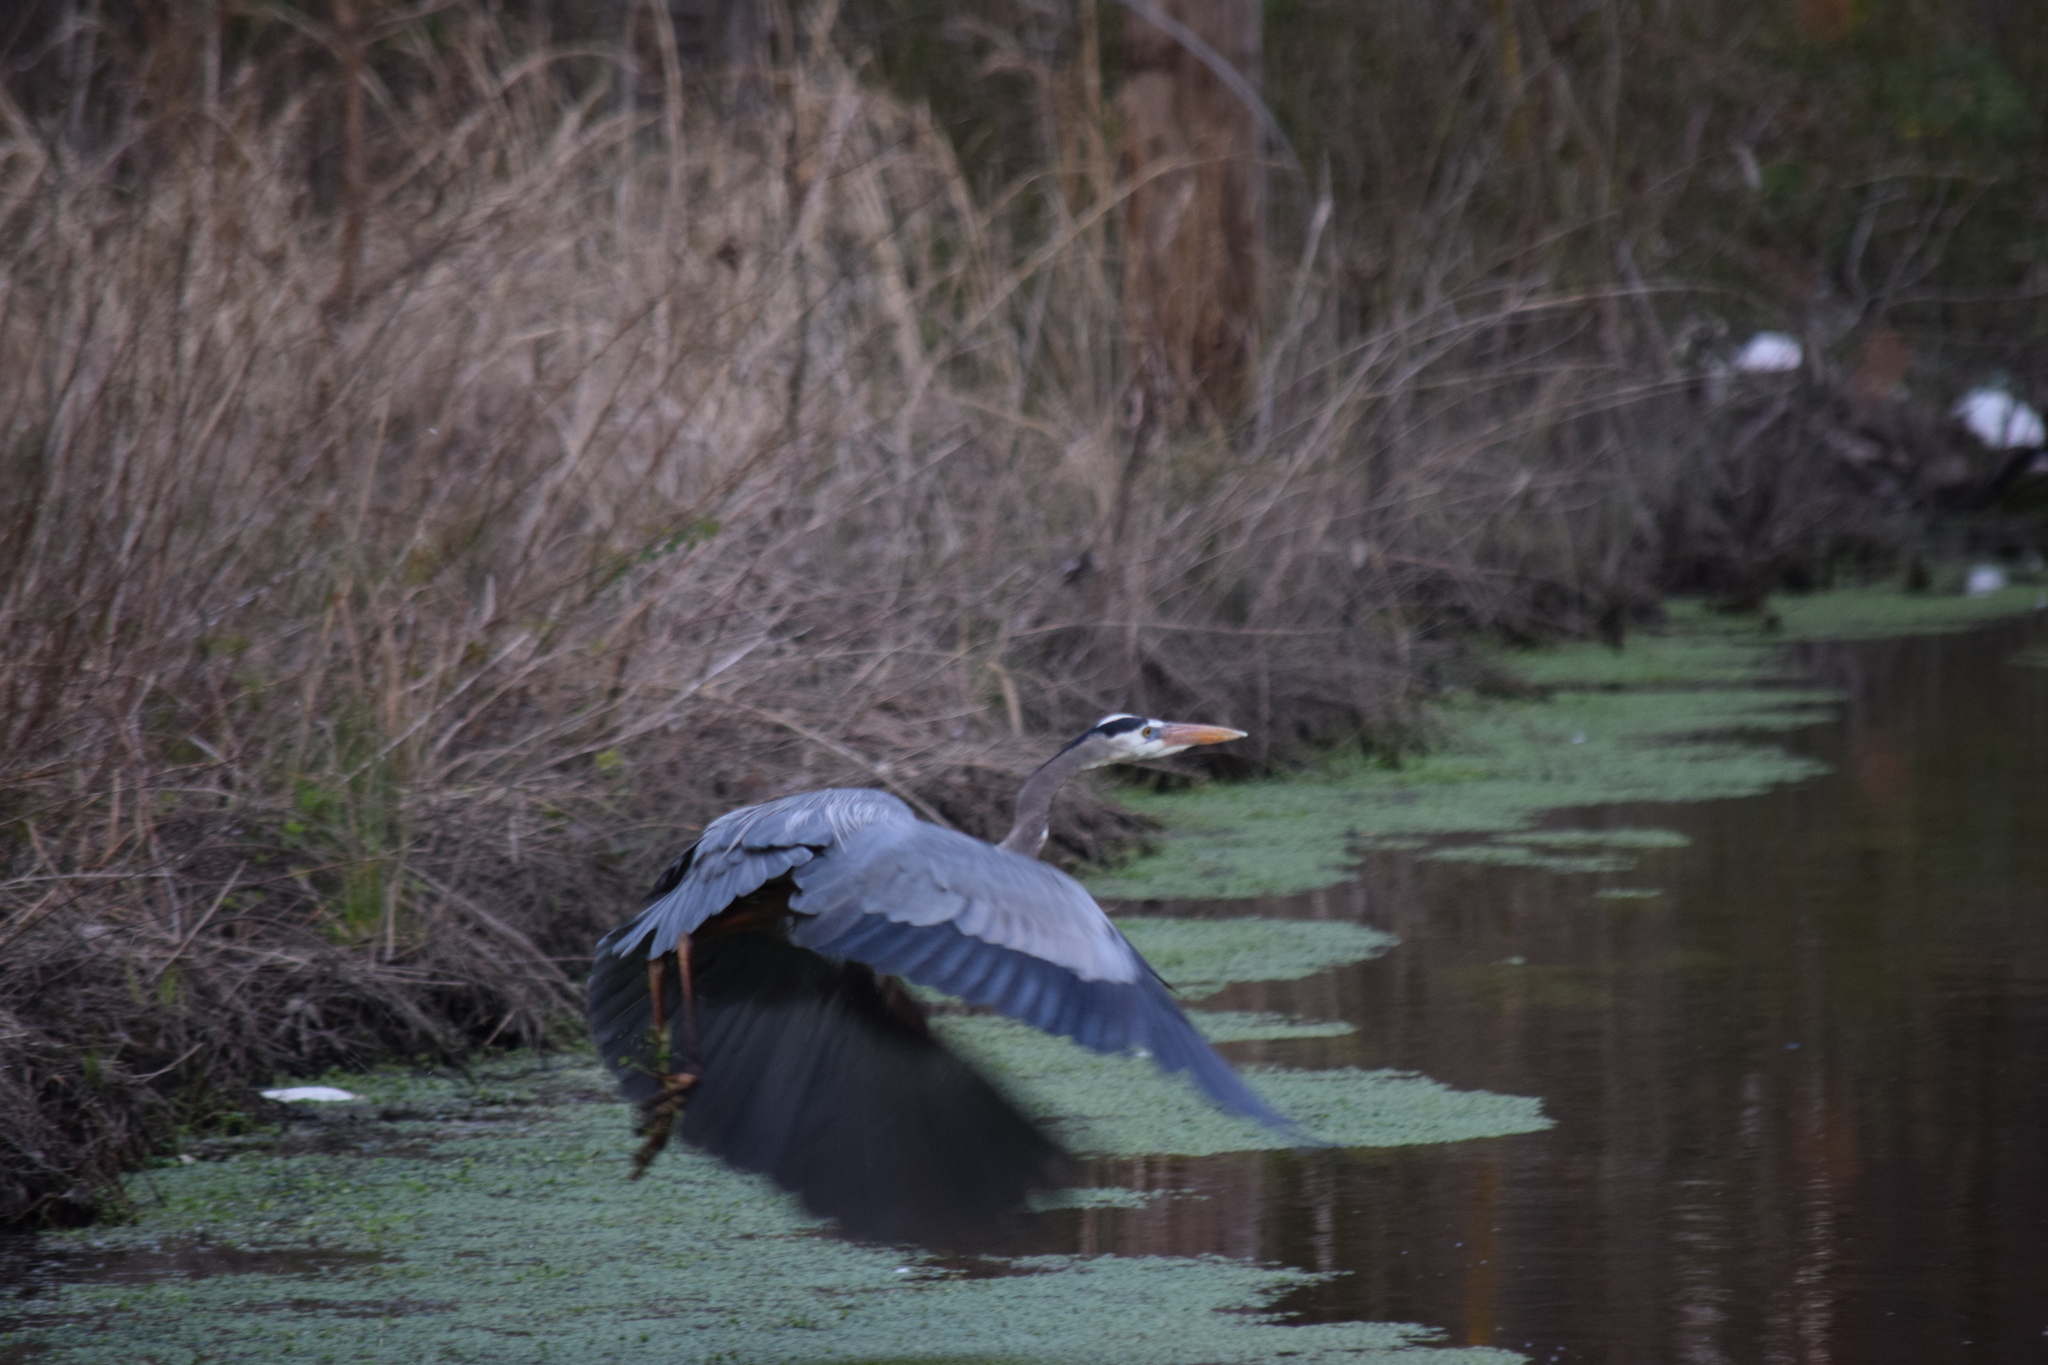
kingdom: Animalia
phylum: Chordata
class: Aves
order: Pelecaniformes
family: Ardeidae
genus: Ardea
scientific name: Ardea herodias
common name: Great blue heron
